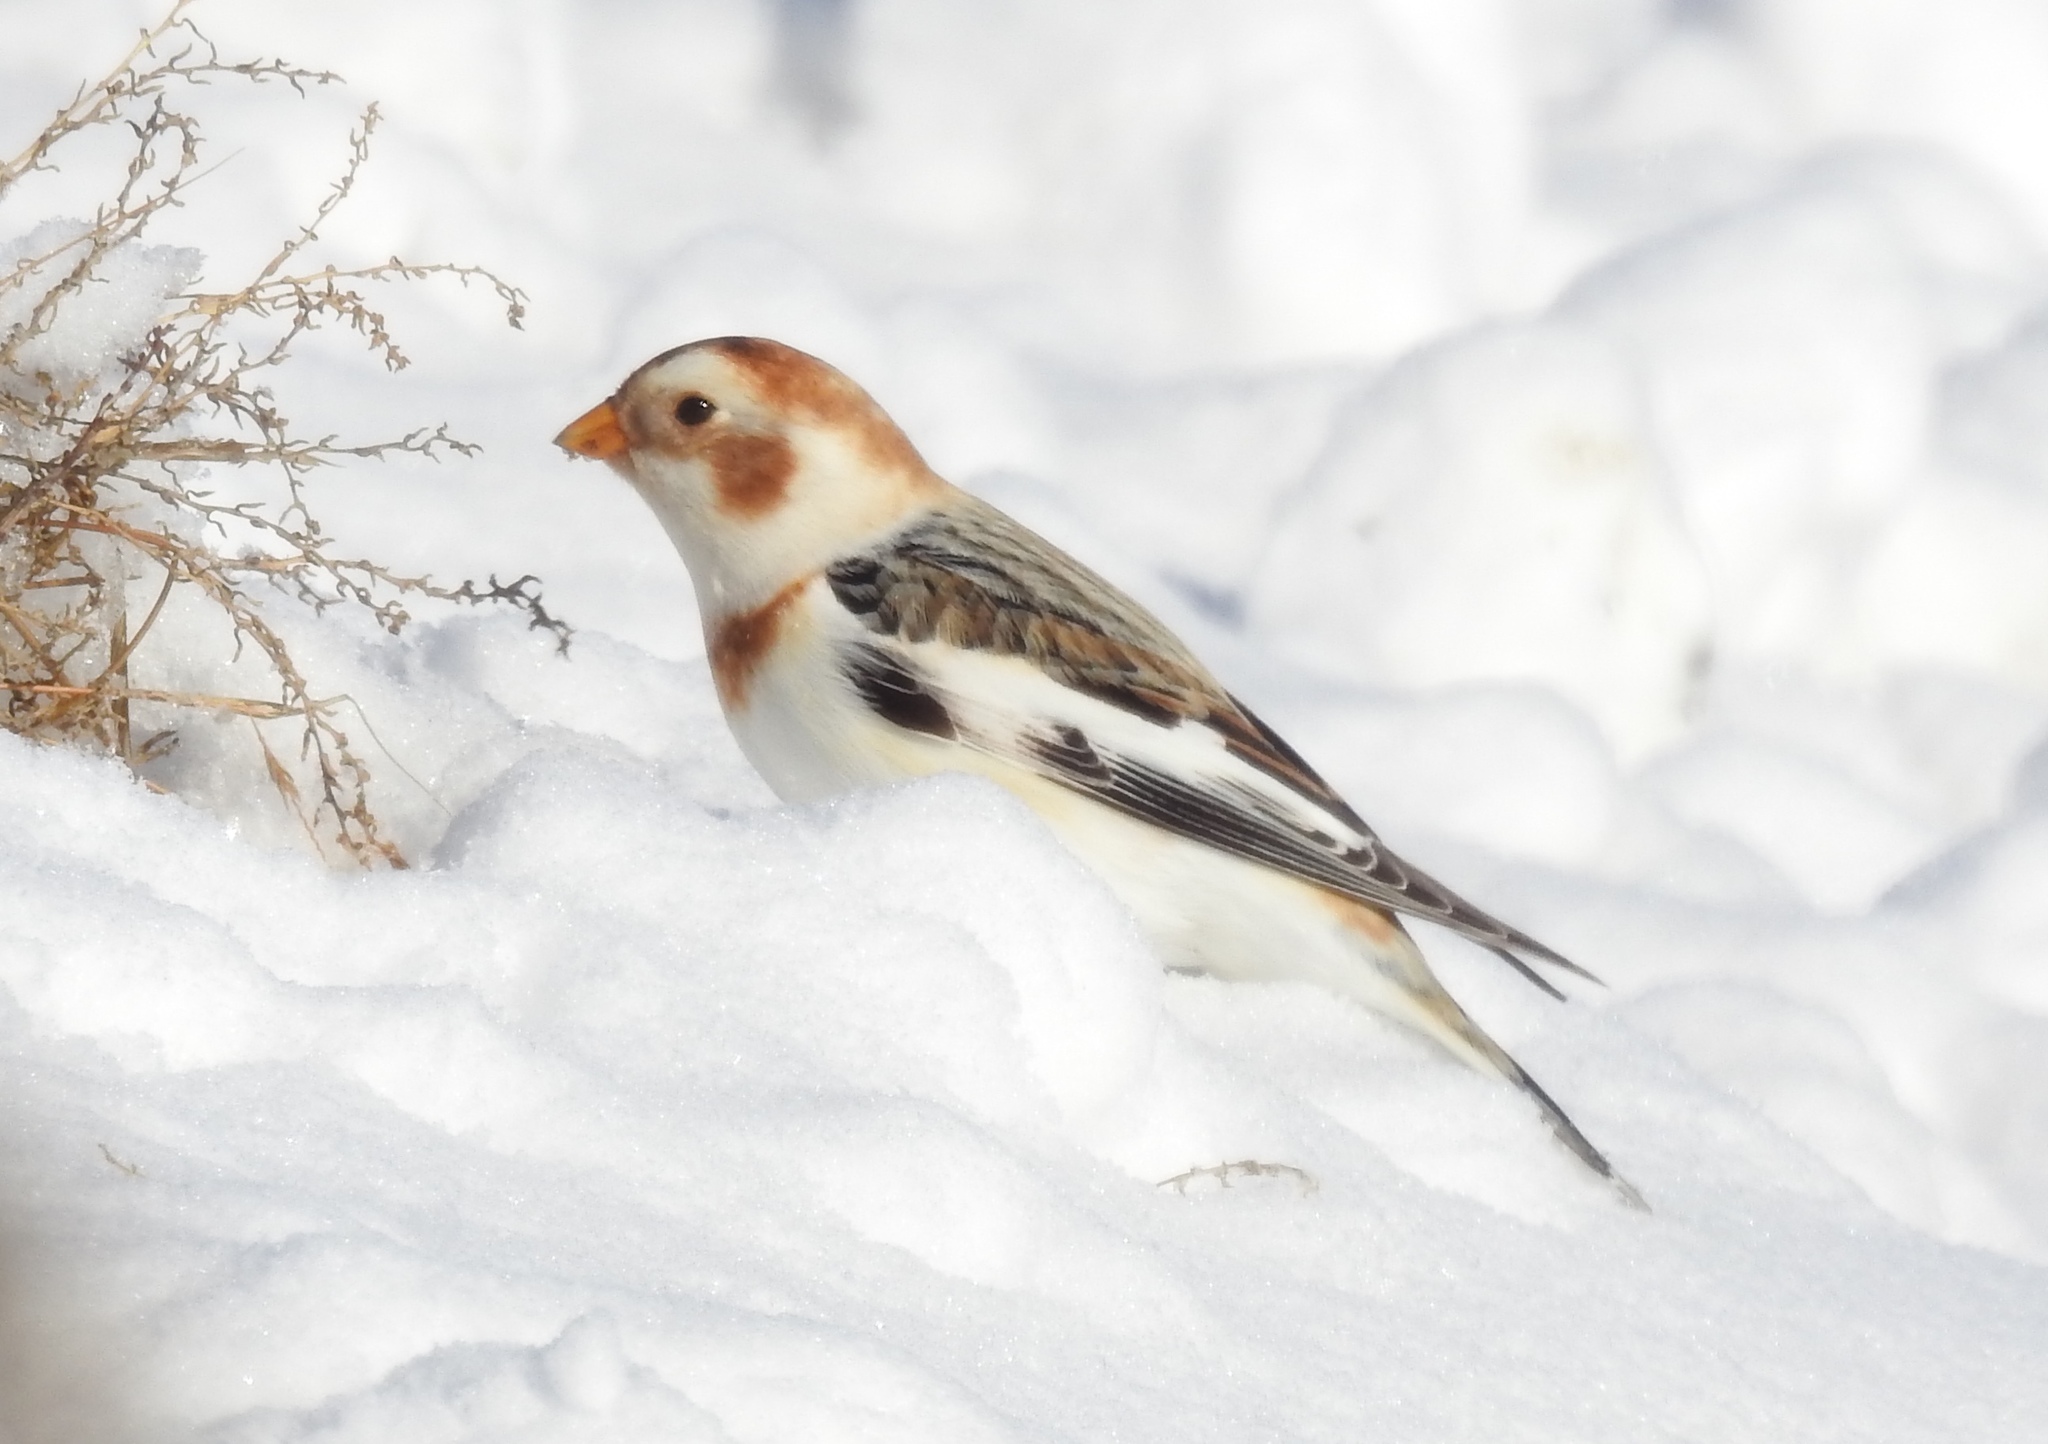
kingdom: Animalia
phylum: Chordata
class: Aves
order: Passeriformes
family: Calcariidae
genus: Plectrophenax
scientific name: Plectrophenax nivalis
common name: Snow bunting
